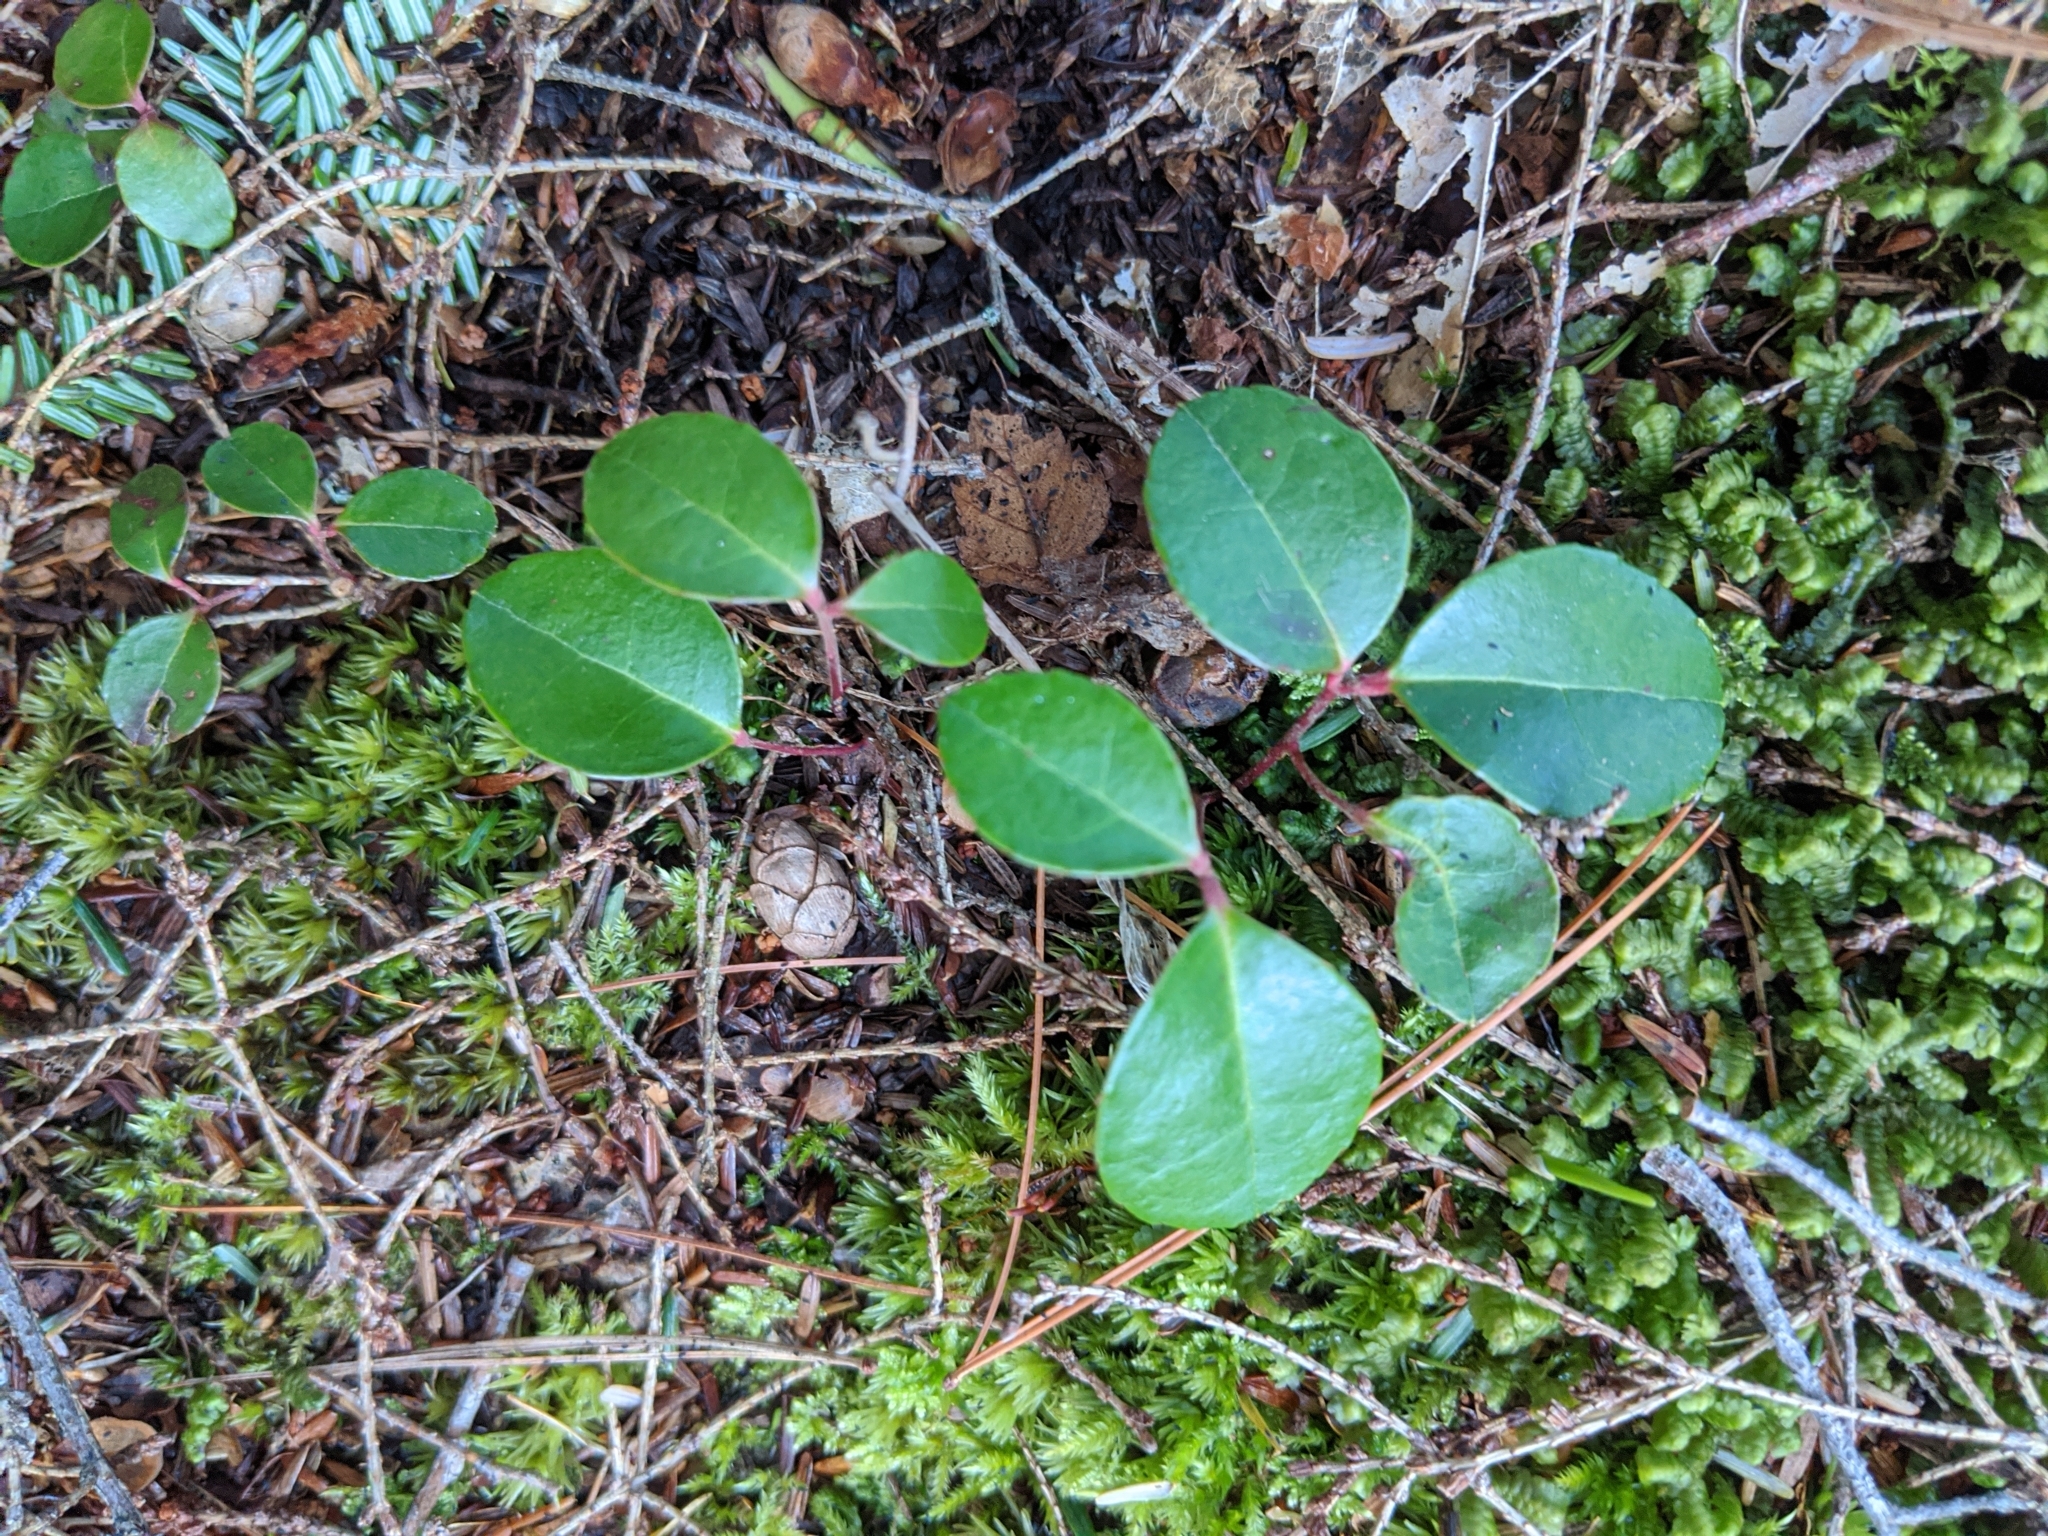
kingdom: Plantae
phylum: Tracheophyta
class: Magnoliopsida
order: Ericales
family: Ericaceae
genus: Gaultheria
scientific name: Gaultheria procumbens
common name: Checkerberry
